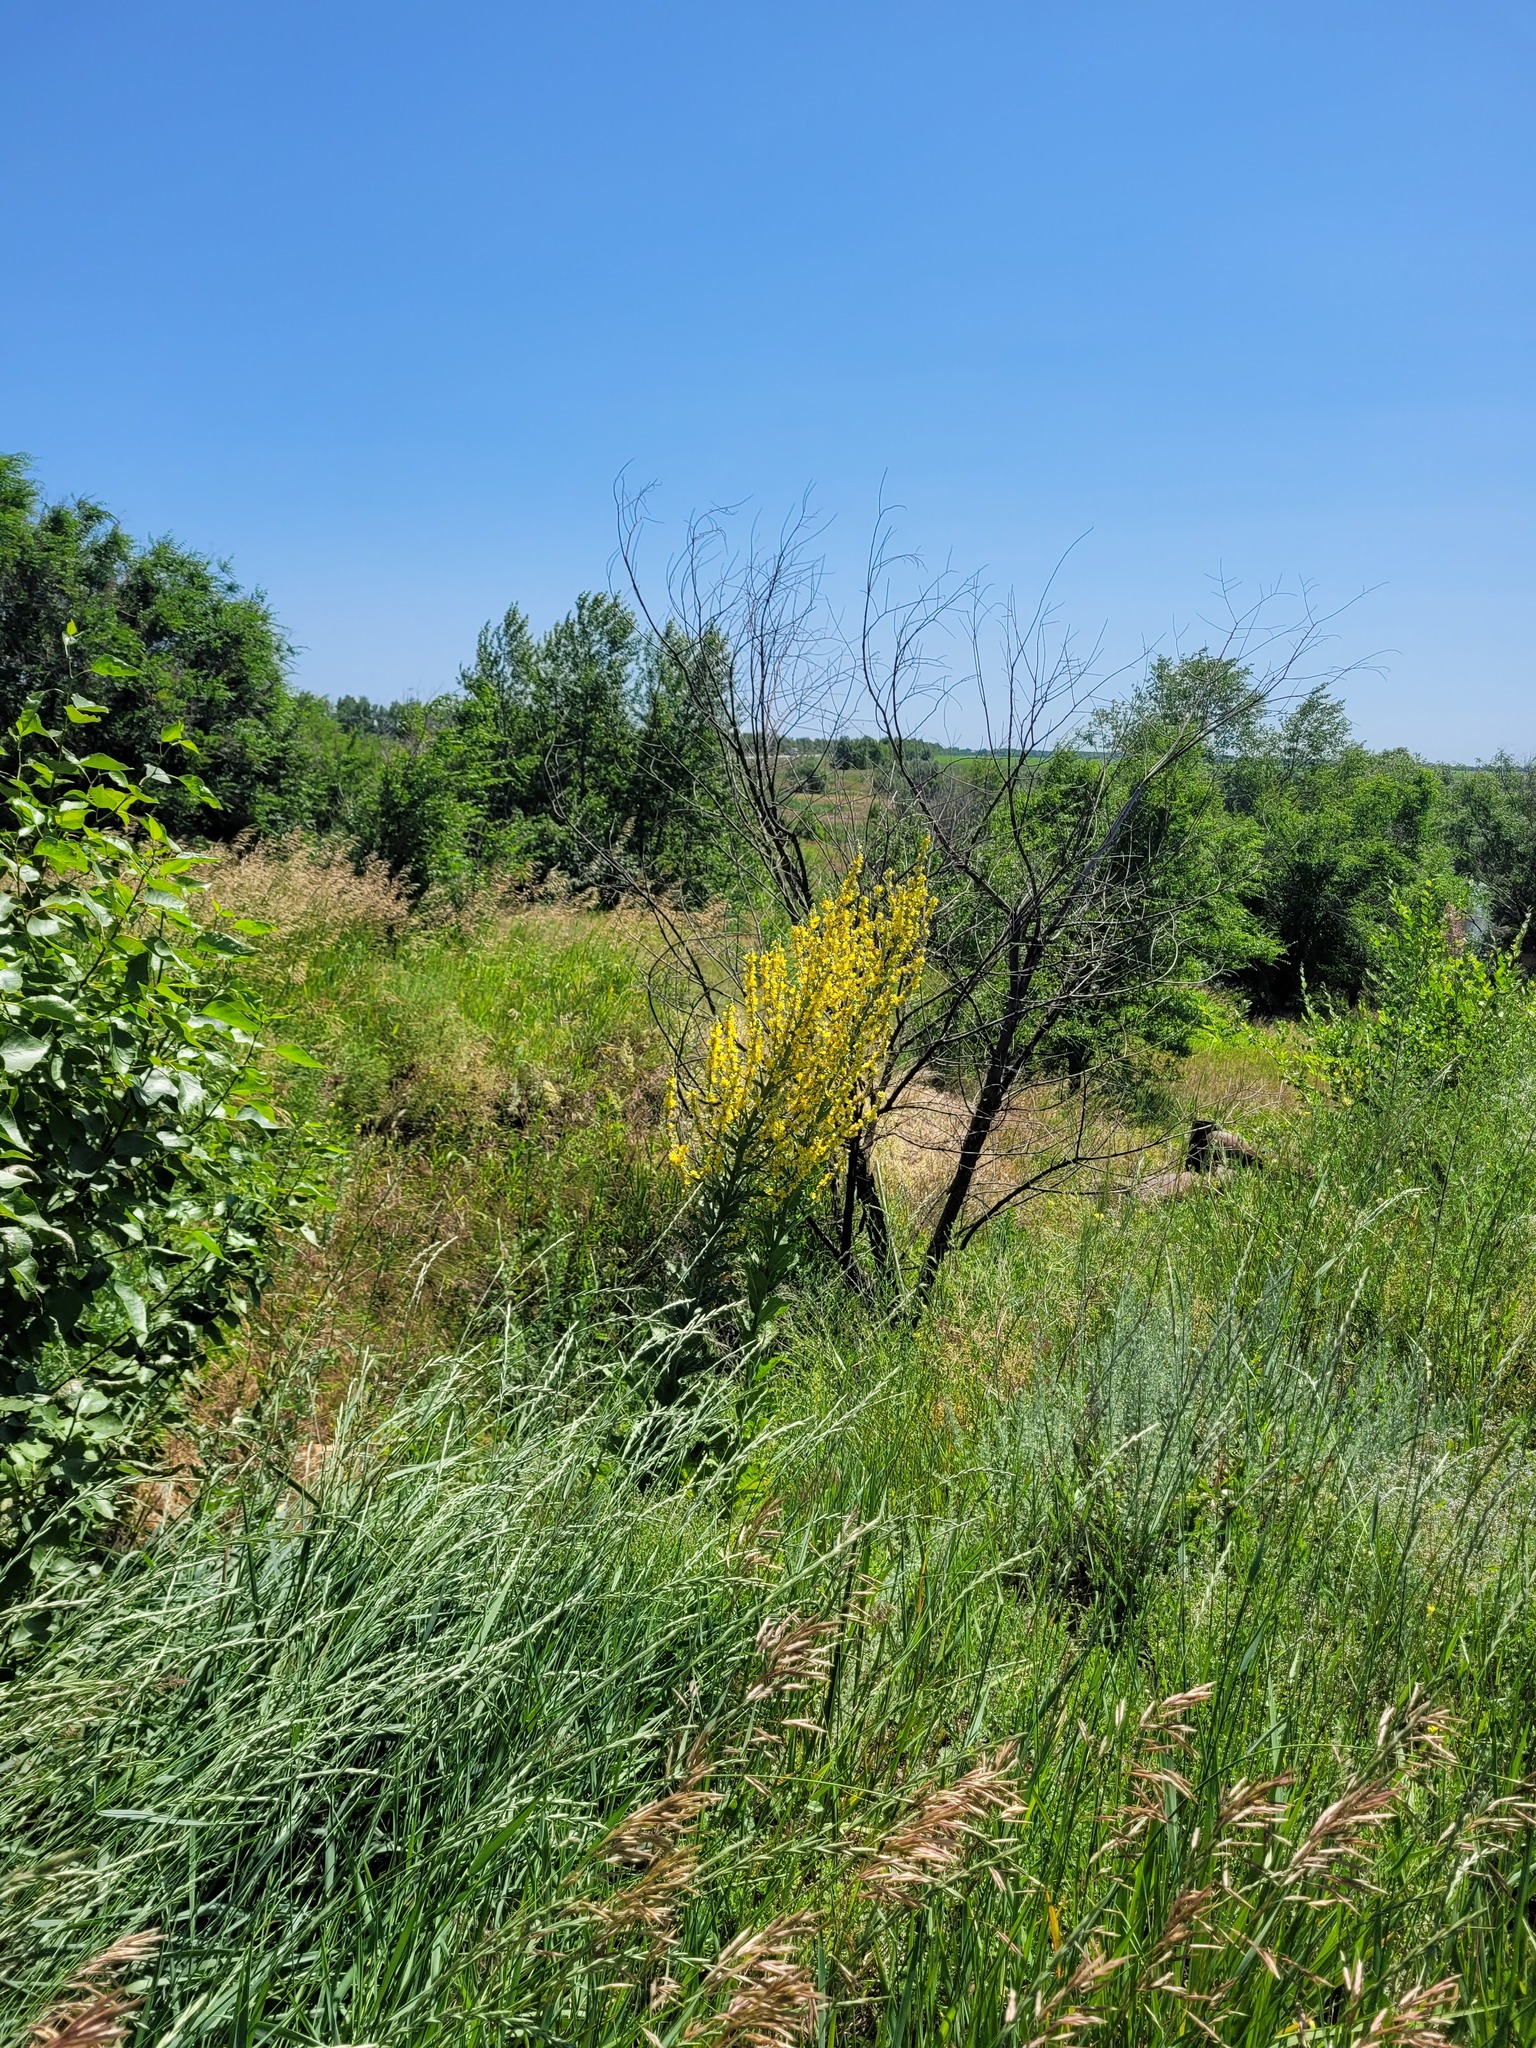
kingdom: Plantae
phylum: Tracheophyta
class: Magnoliopsida
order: Lamiales
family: Scrophulariaceae
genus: Verbascum
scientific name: Verbascum lychnitis
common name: White mullein
